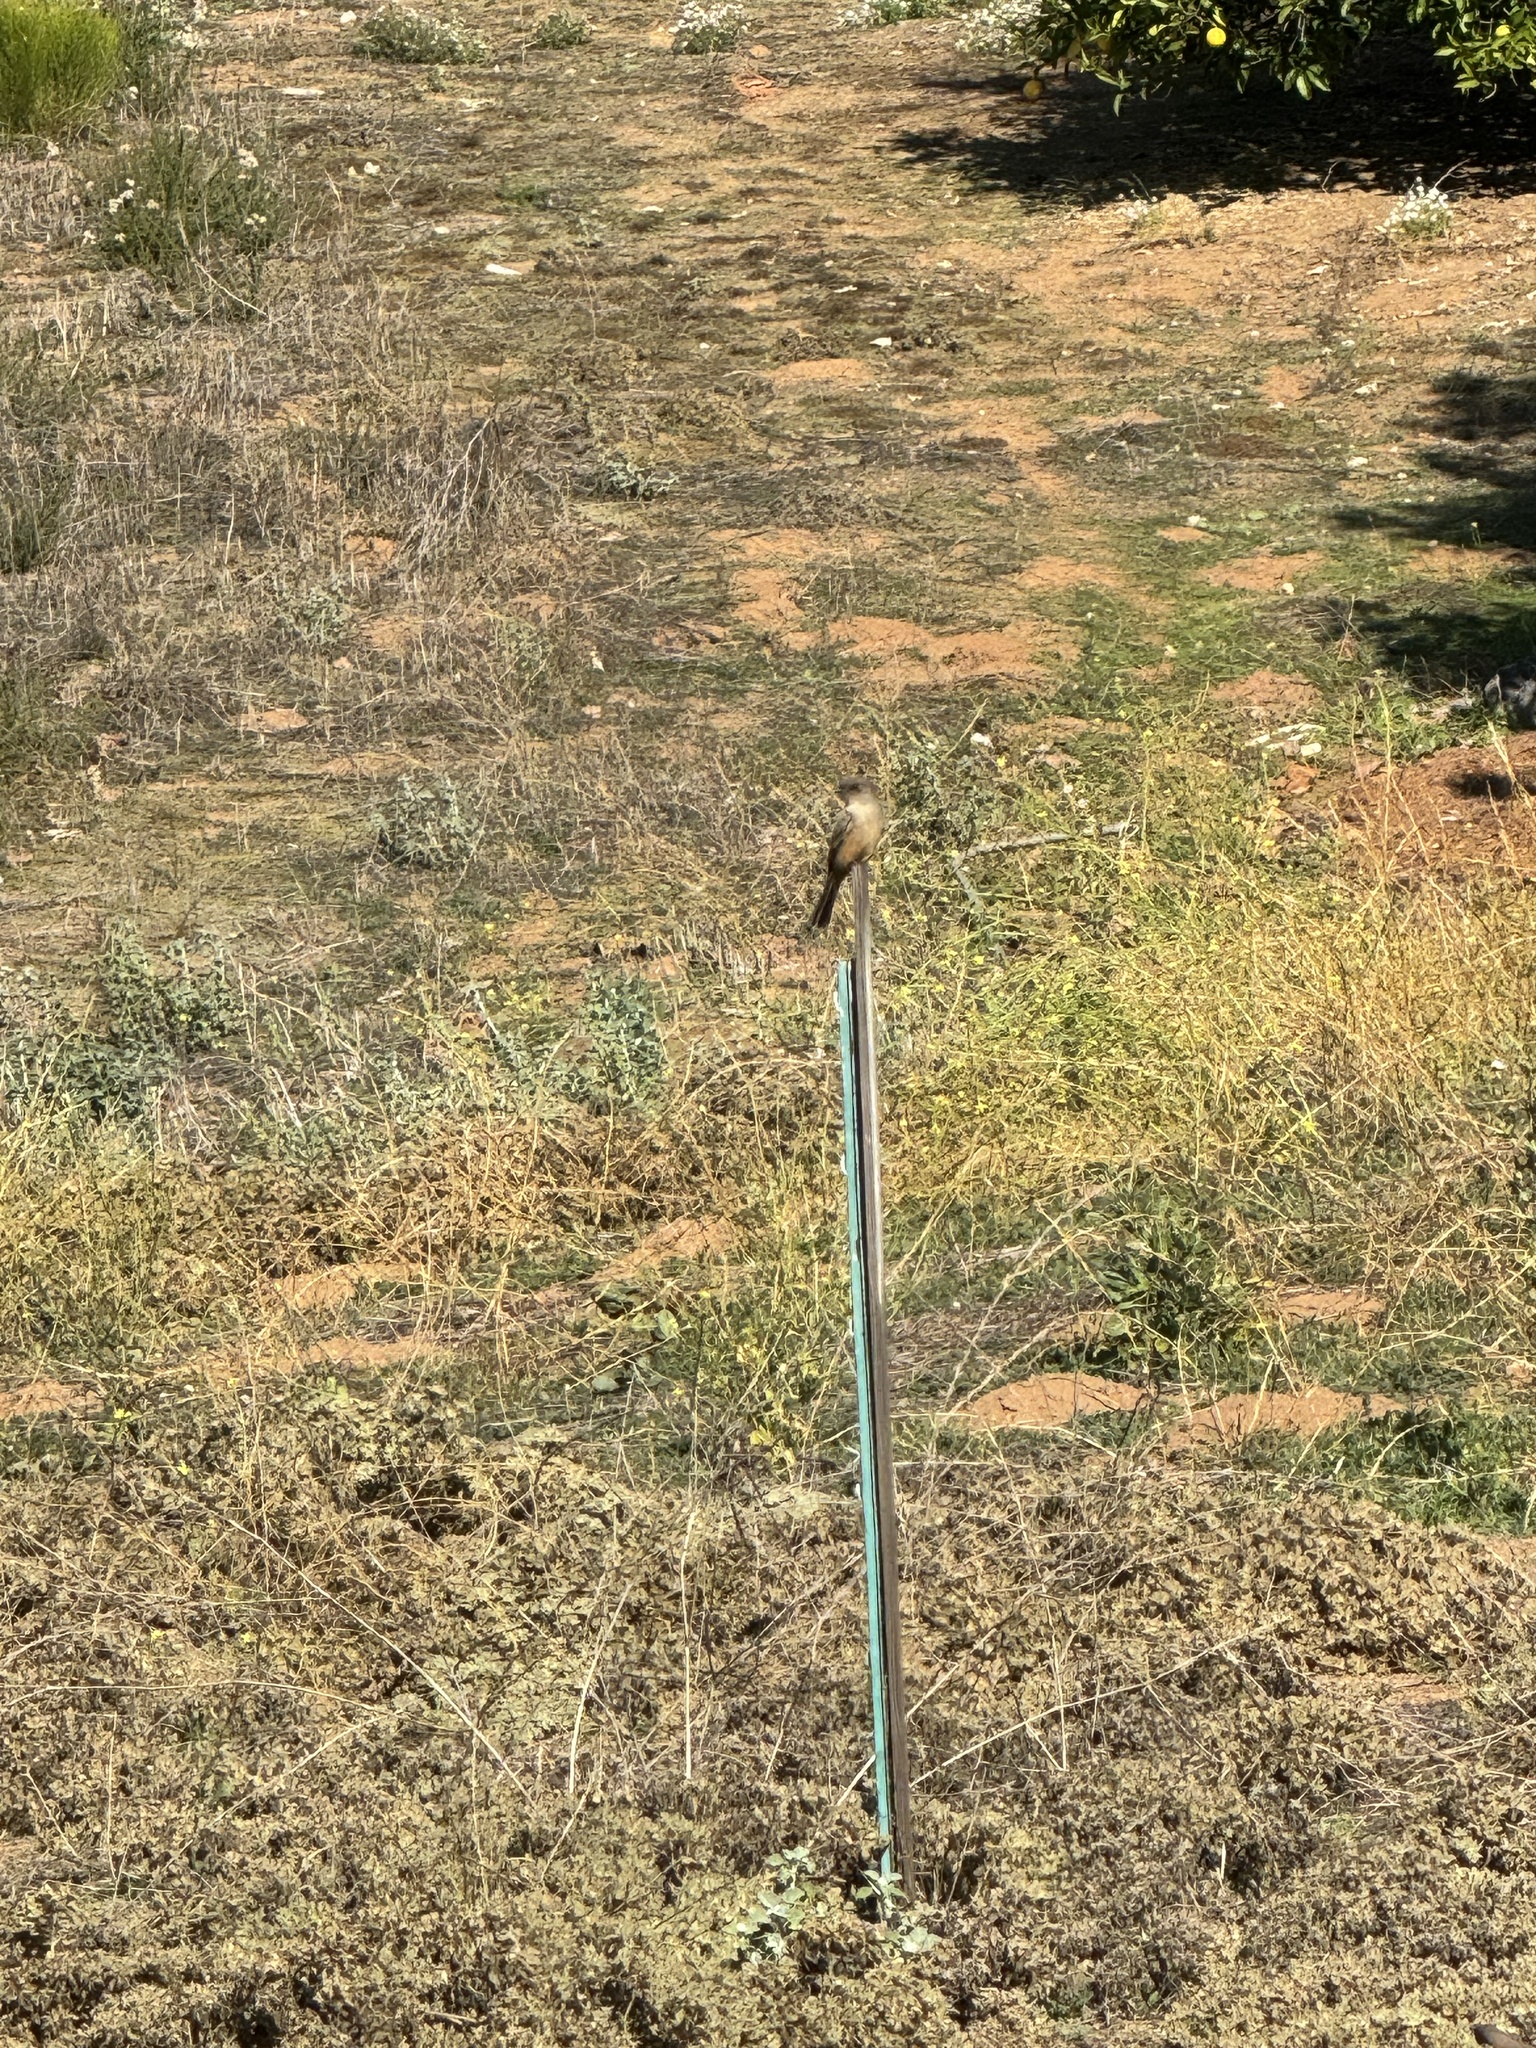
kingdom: Animalia
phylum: Chordata
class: Aves
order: Passeriformes
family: Tyrannidae
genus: Sayornis
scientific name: Sayornis saya
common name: Say's phoebe
